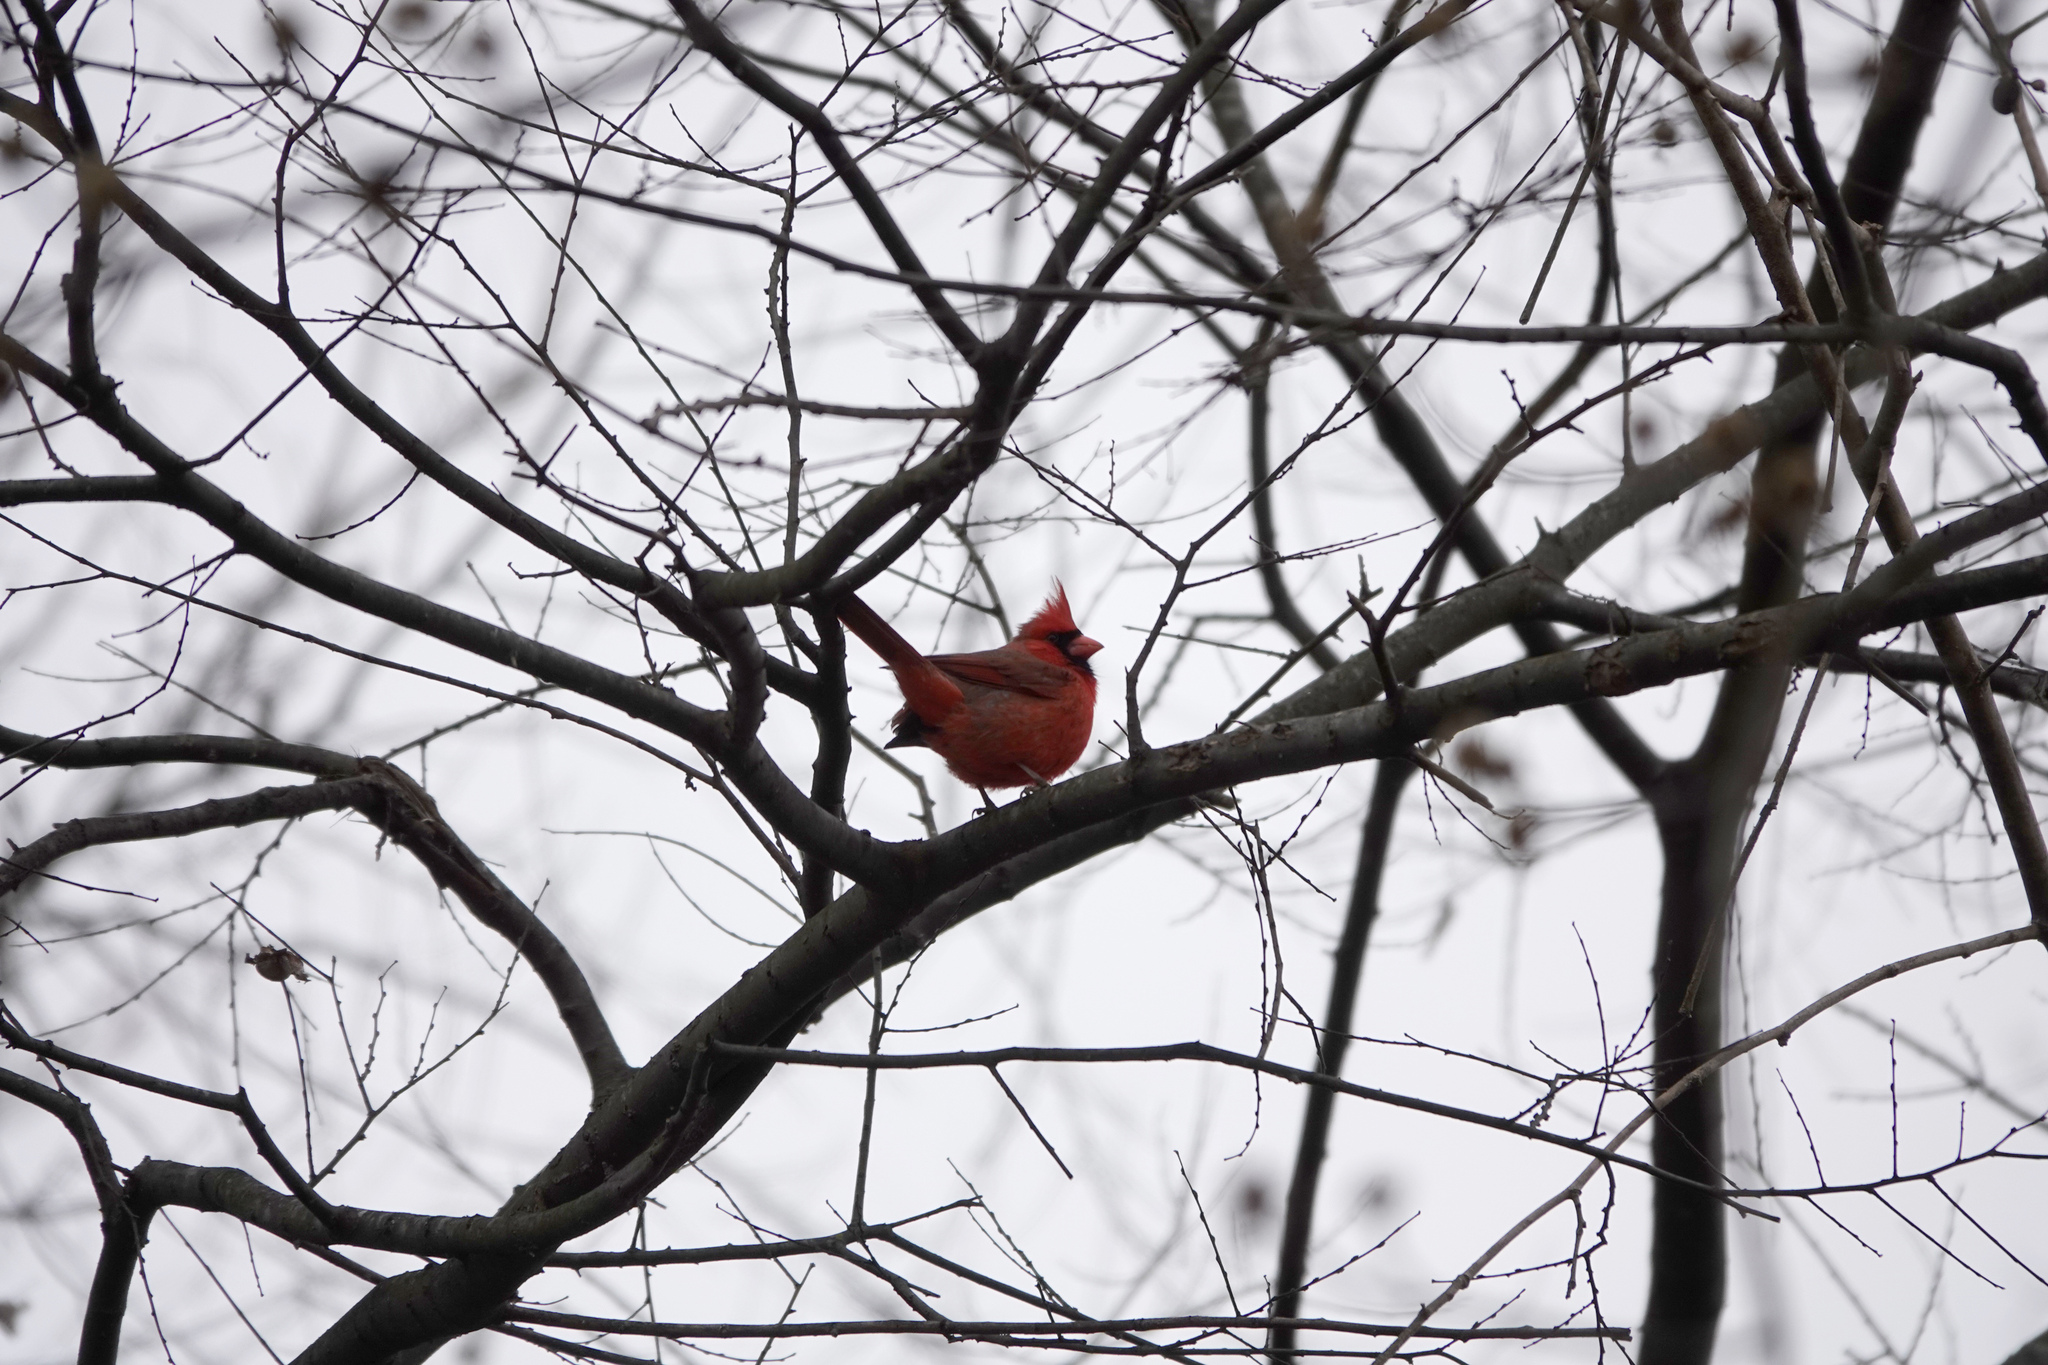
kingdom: Animalia
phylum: Chordata
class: Aves
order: Passeriformes
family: Cardinalidae
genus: Cardinalis
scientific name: Cardinalis cardinalis
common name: Northern cardinal
